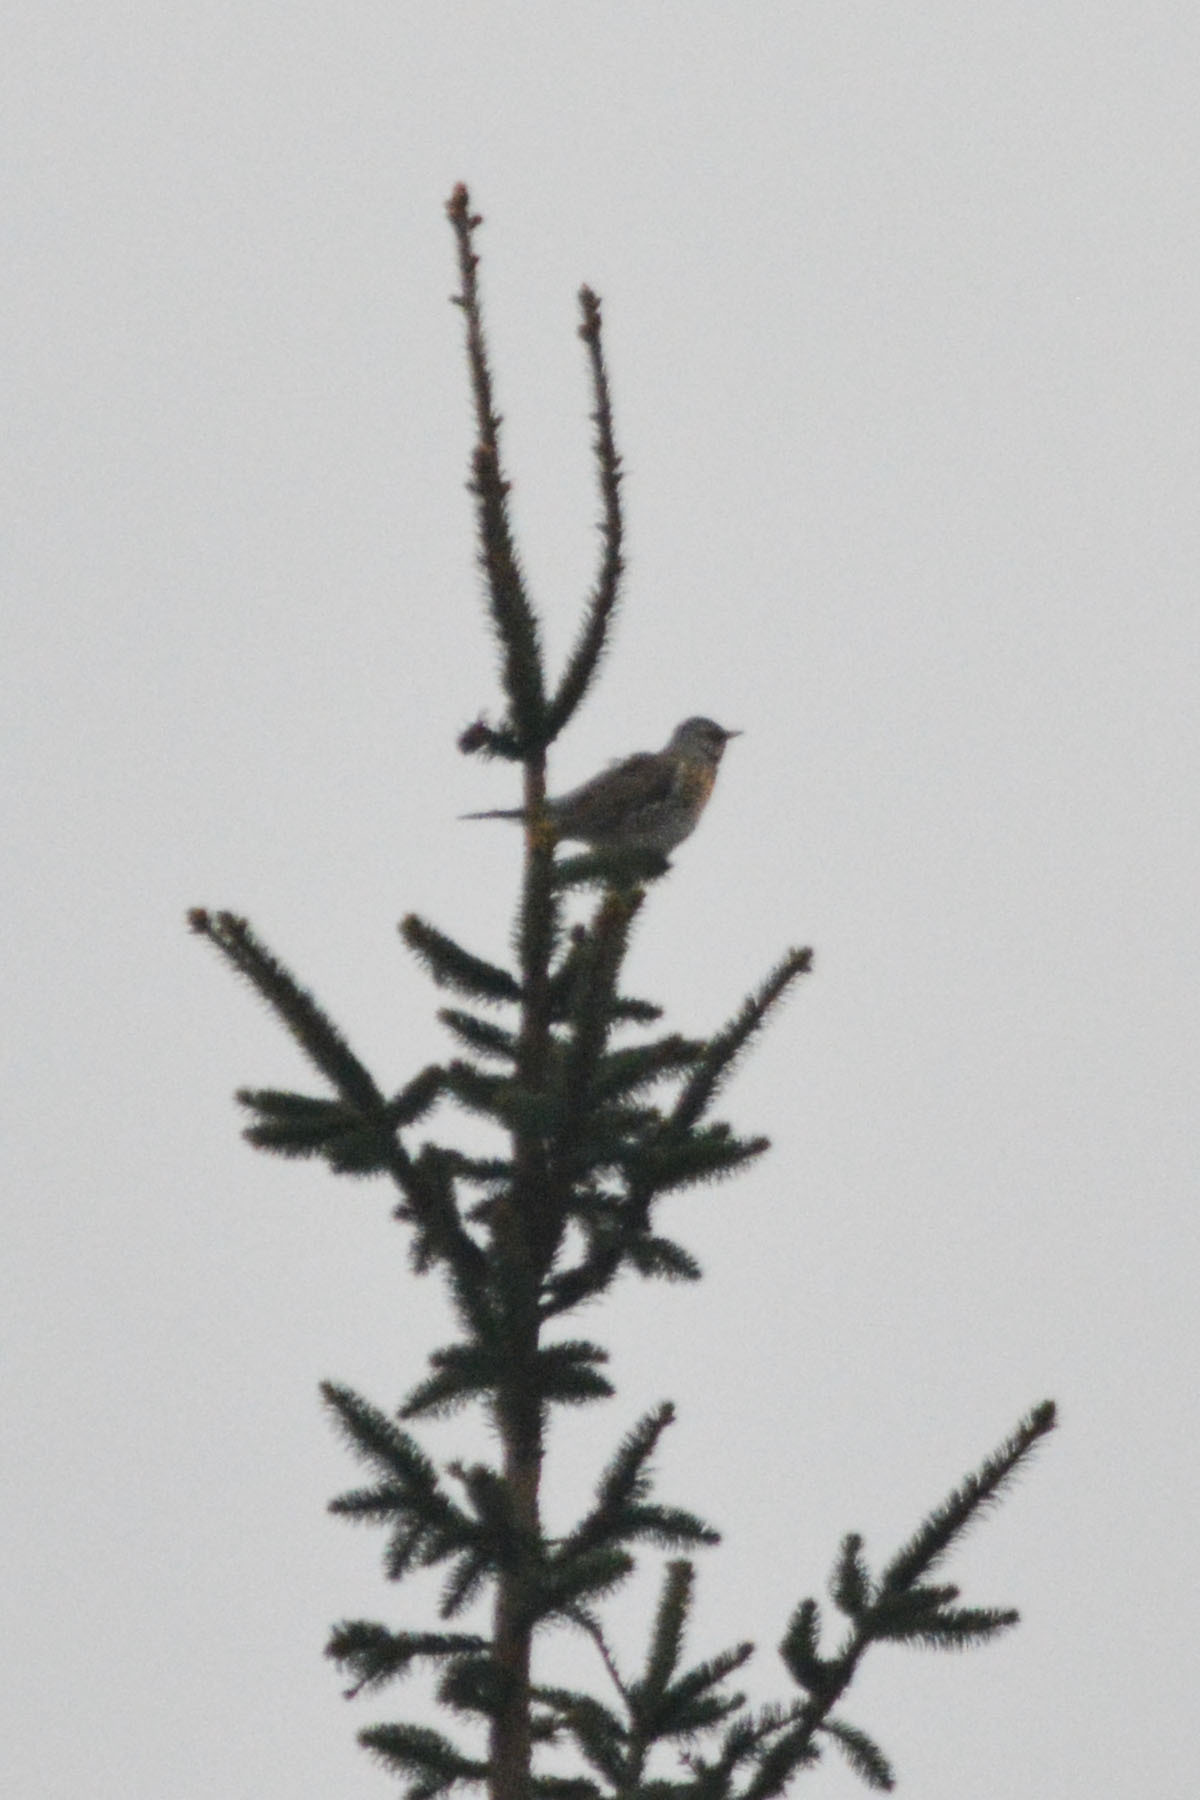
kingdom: Animalia
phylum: Chordata
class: Aves
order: Passeriformes
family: Turdidae
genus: Turdus
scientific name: Turdus pilaris
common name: Fieldfare
